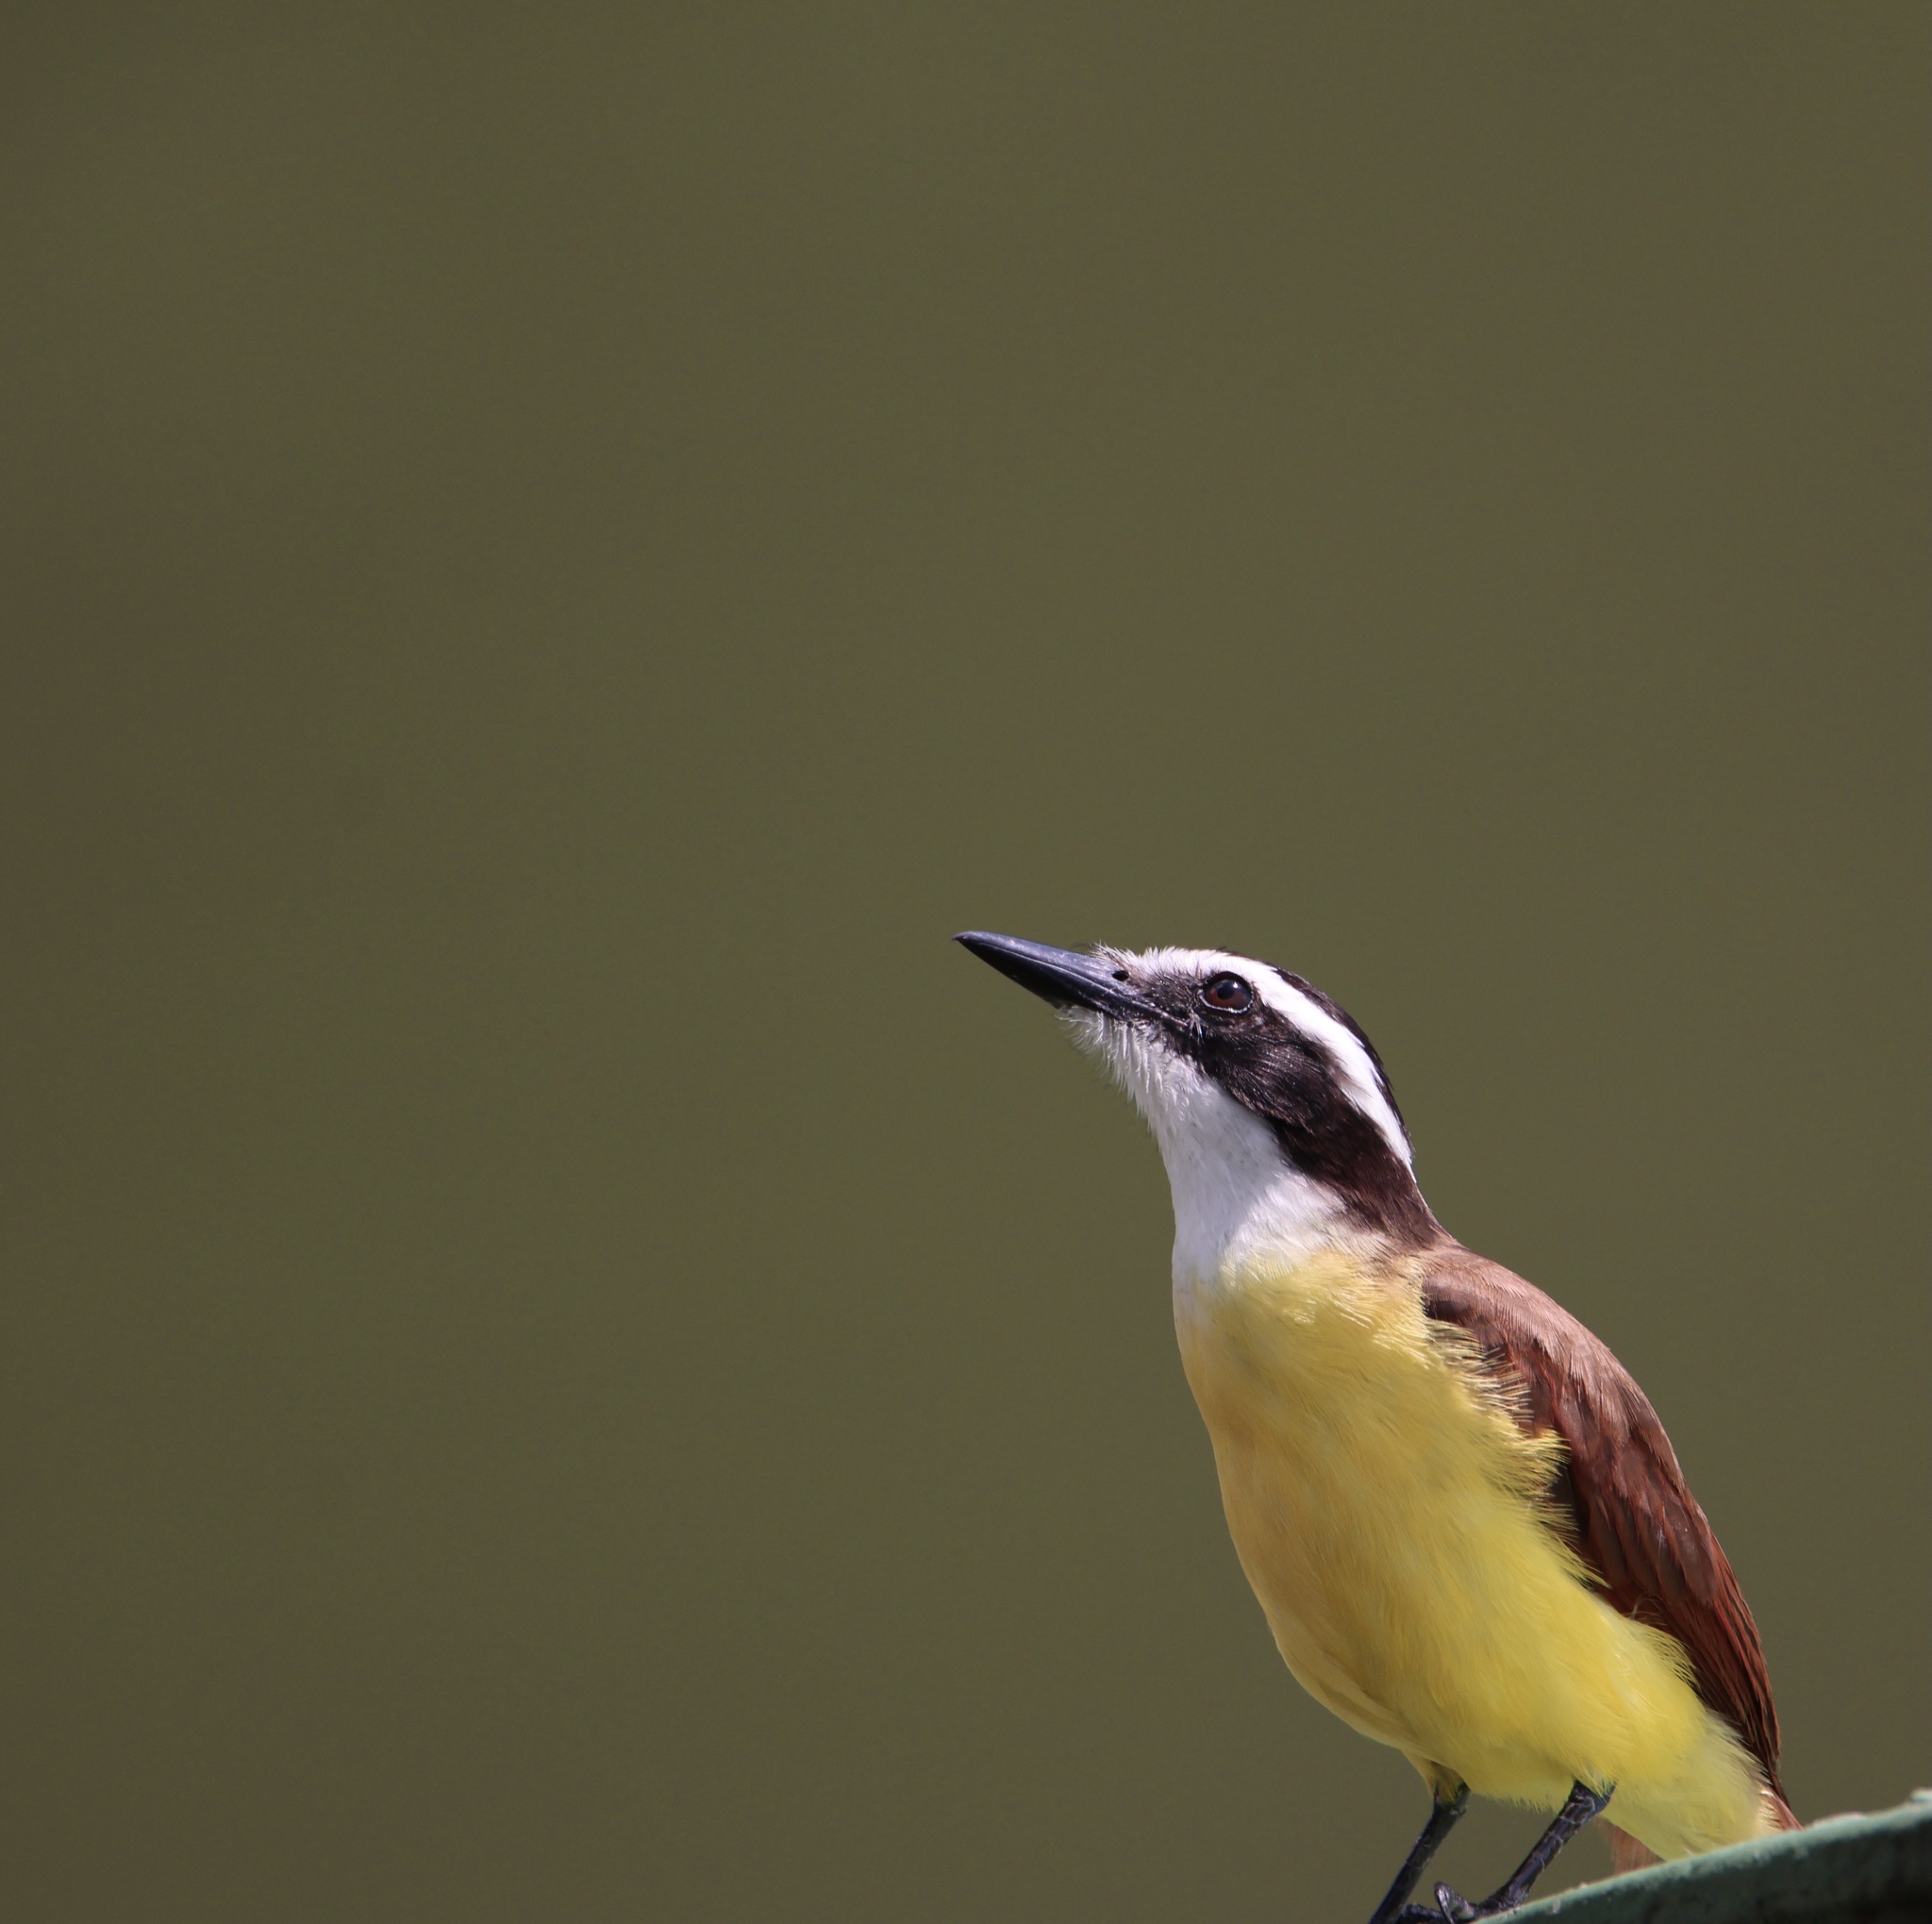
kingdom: Animalia
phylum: Chordata
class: Aves
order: Passeriformes
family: Tyrannidae
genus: Pitangus
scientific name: Pitangus sulphuratus
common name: Great kiskadee
